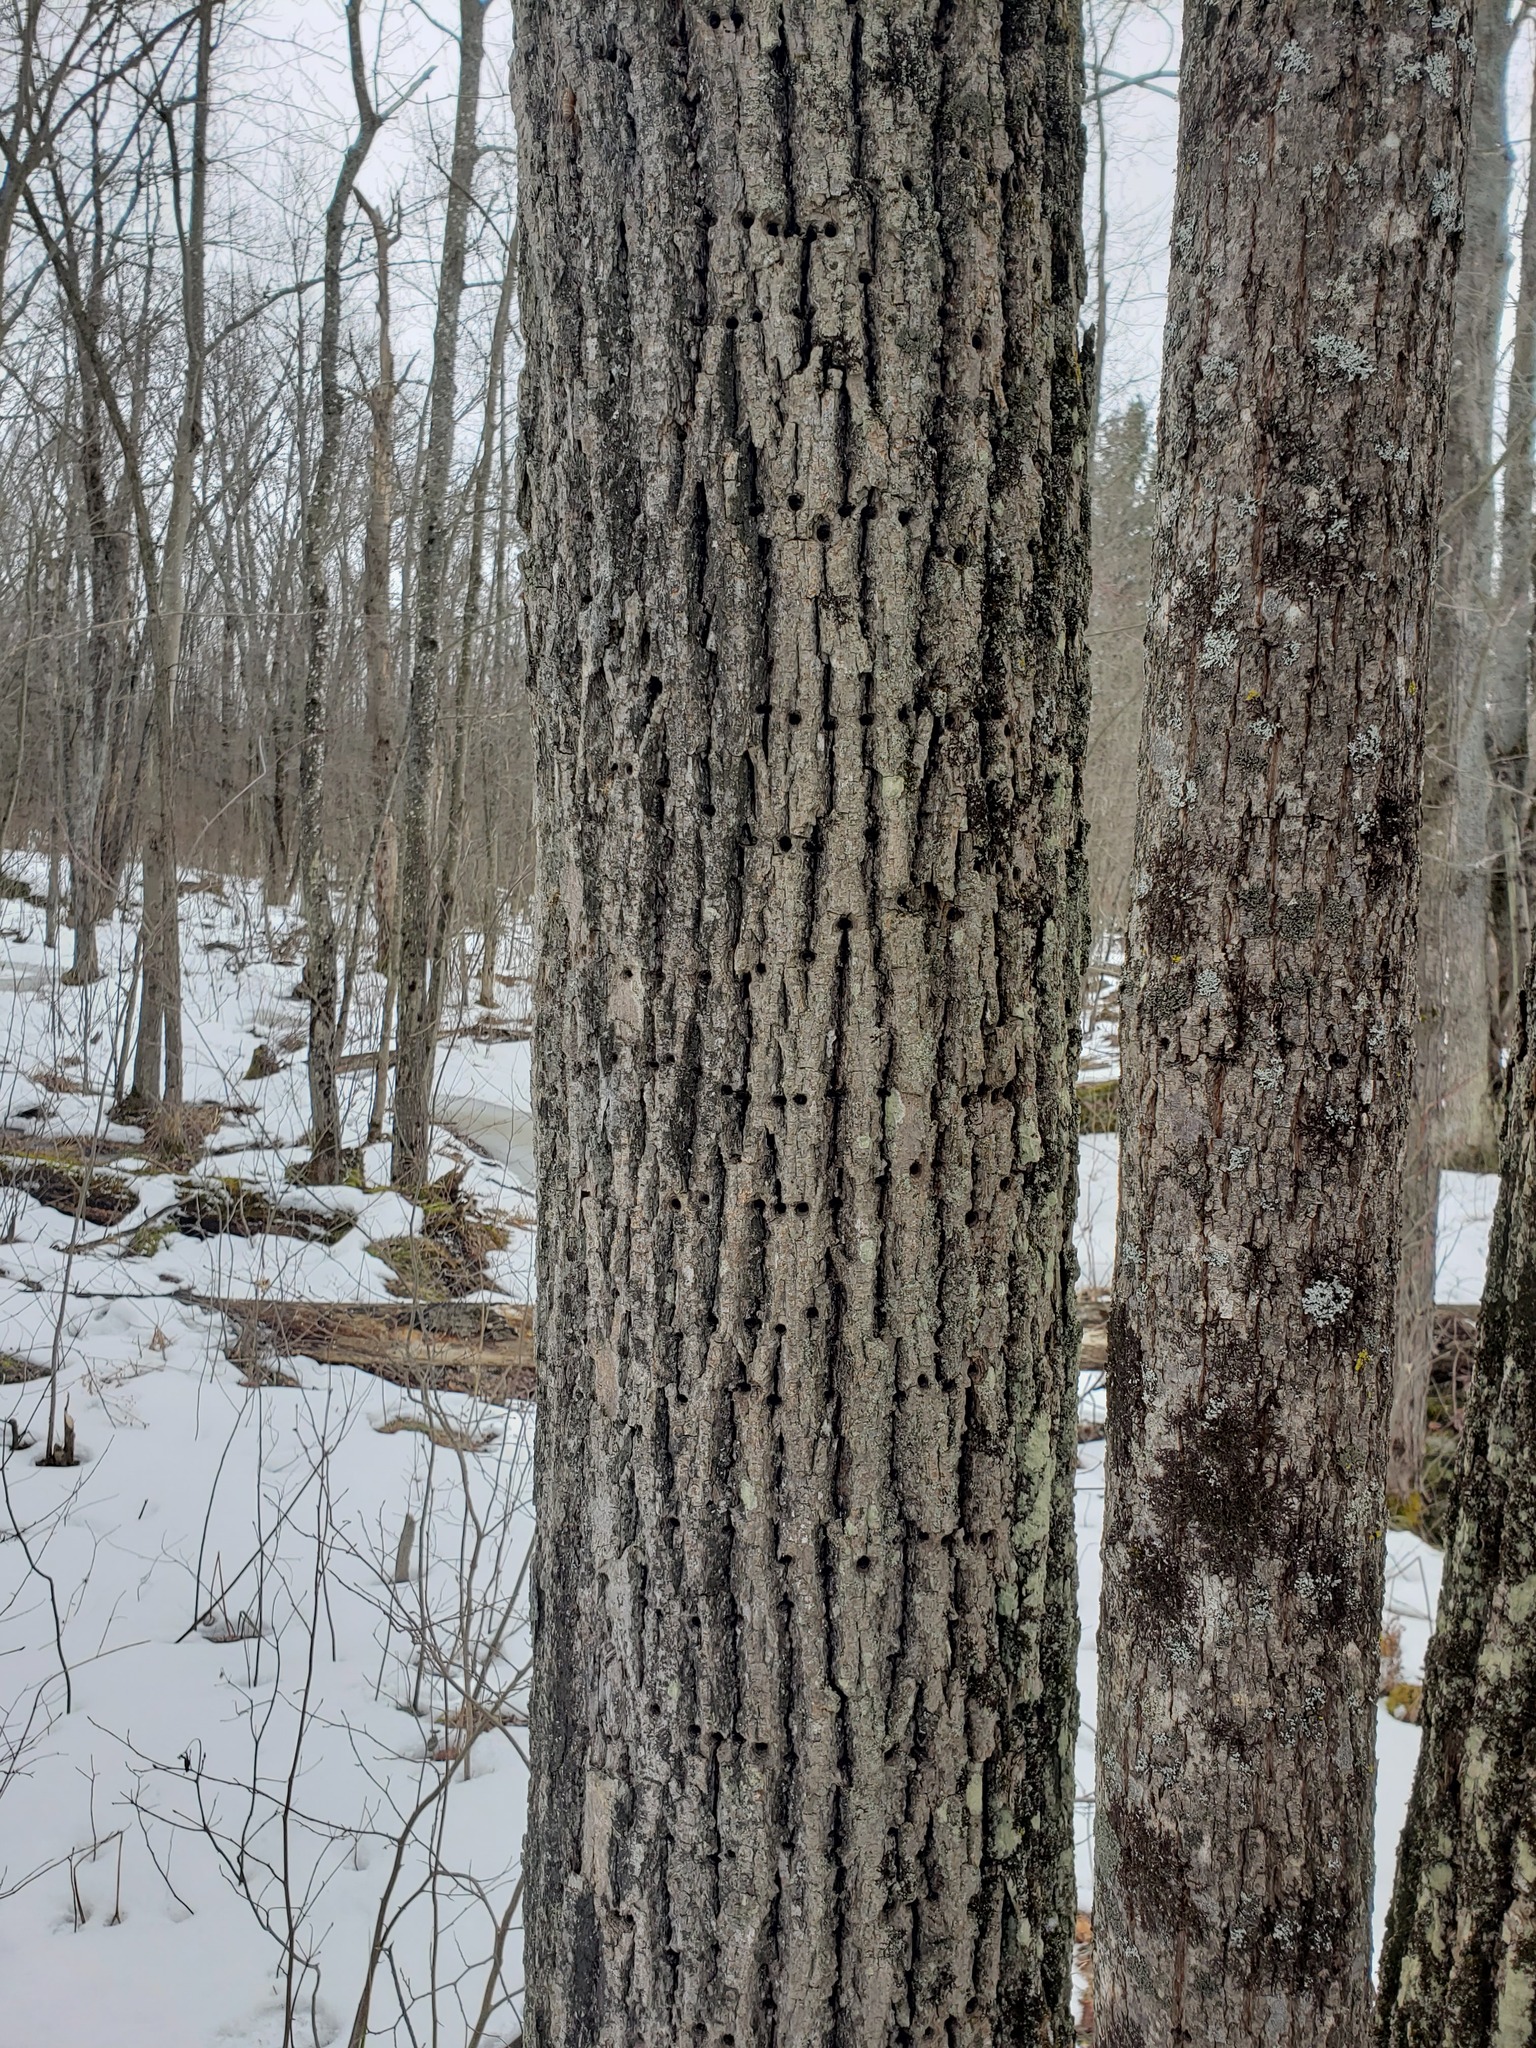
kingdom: Animalia
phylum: Chordata
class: Aves
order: Piciformes
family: Picidae
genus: Sphyrapicus
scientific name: Sphyrapicus varius
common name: Yellow-bellied sapsucker
